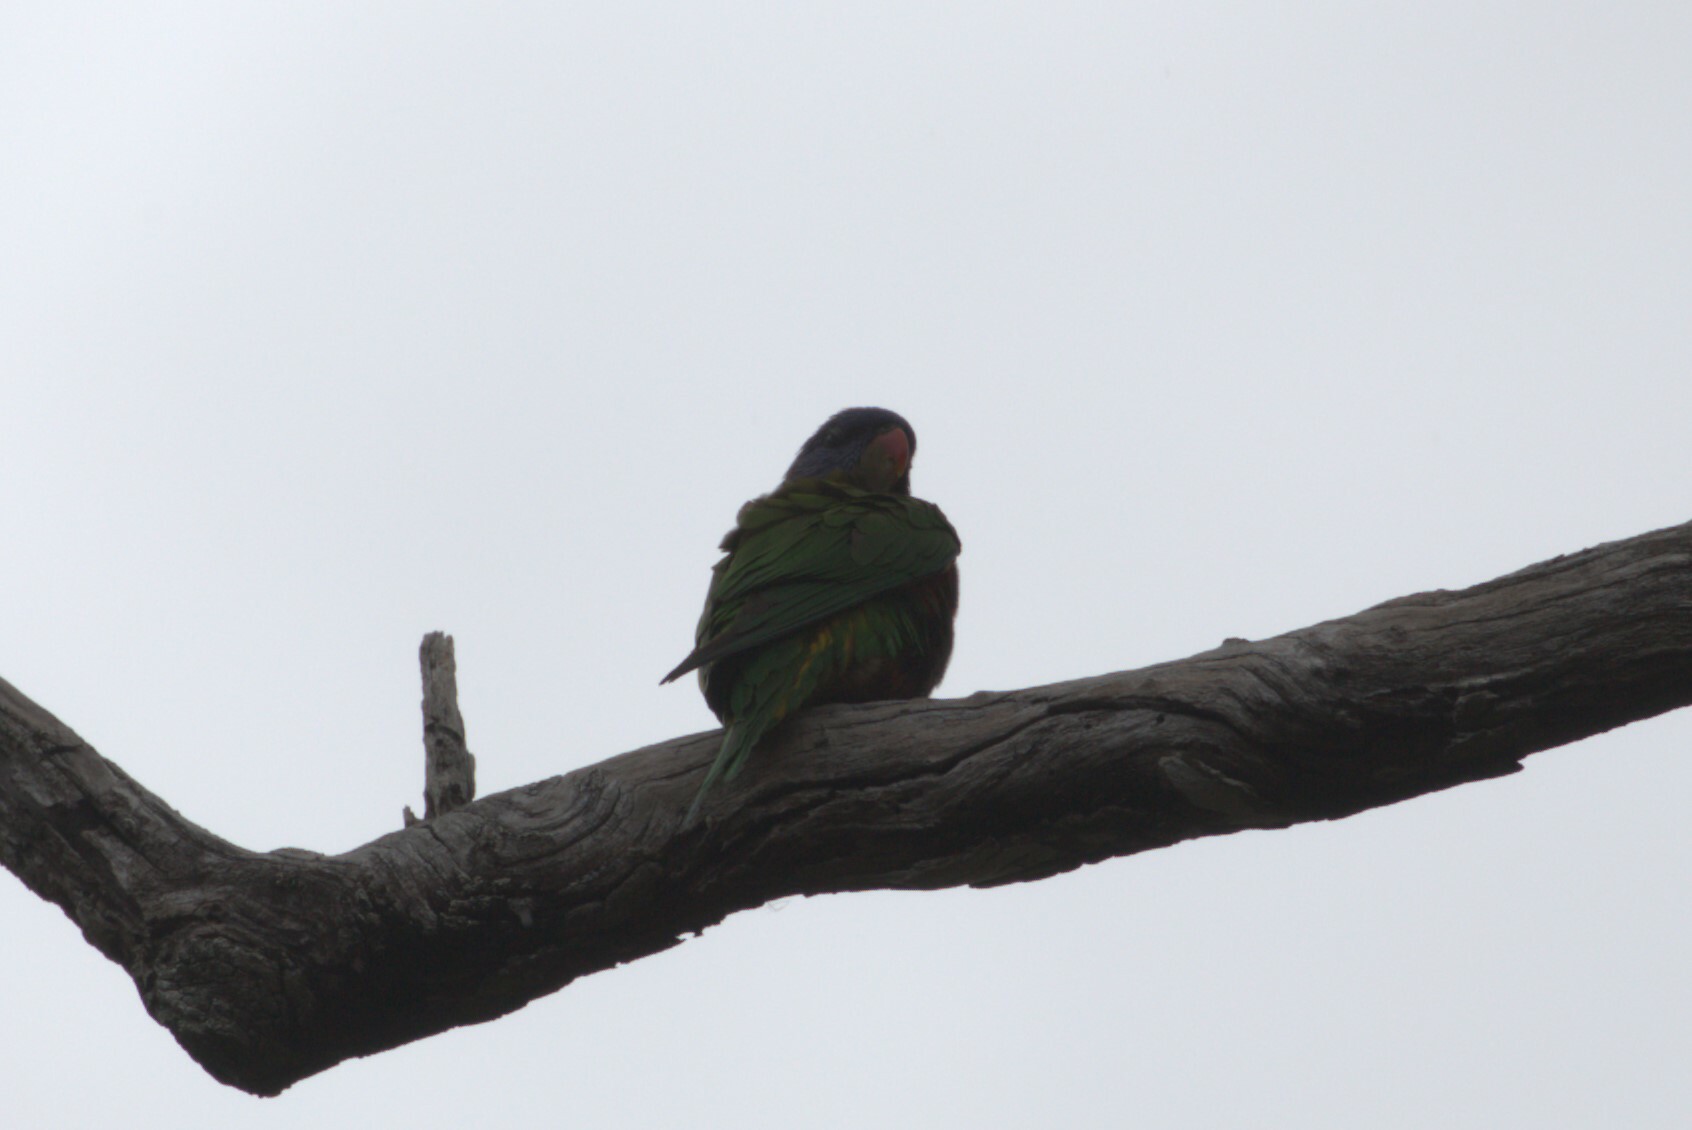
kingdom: Animalia
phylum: Chordata
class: Aves
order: Psittaciformes
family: Psittacidae
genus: Trichoglossus
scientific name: Trichoglossus haematodus
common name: Coconut lorikeet
